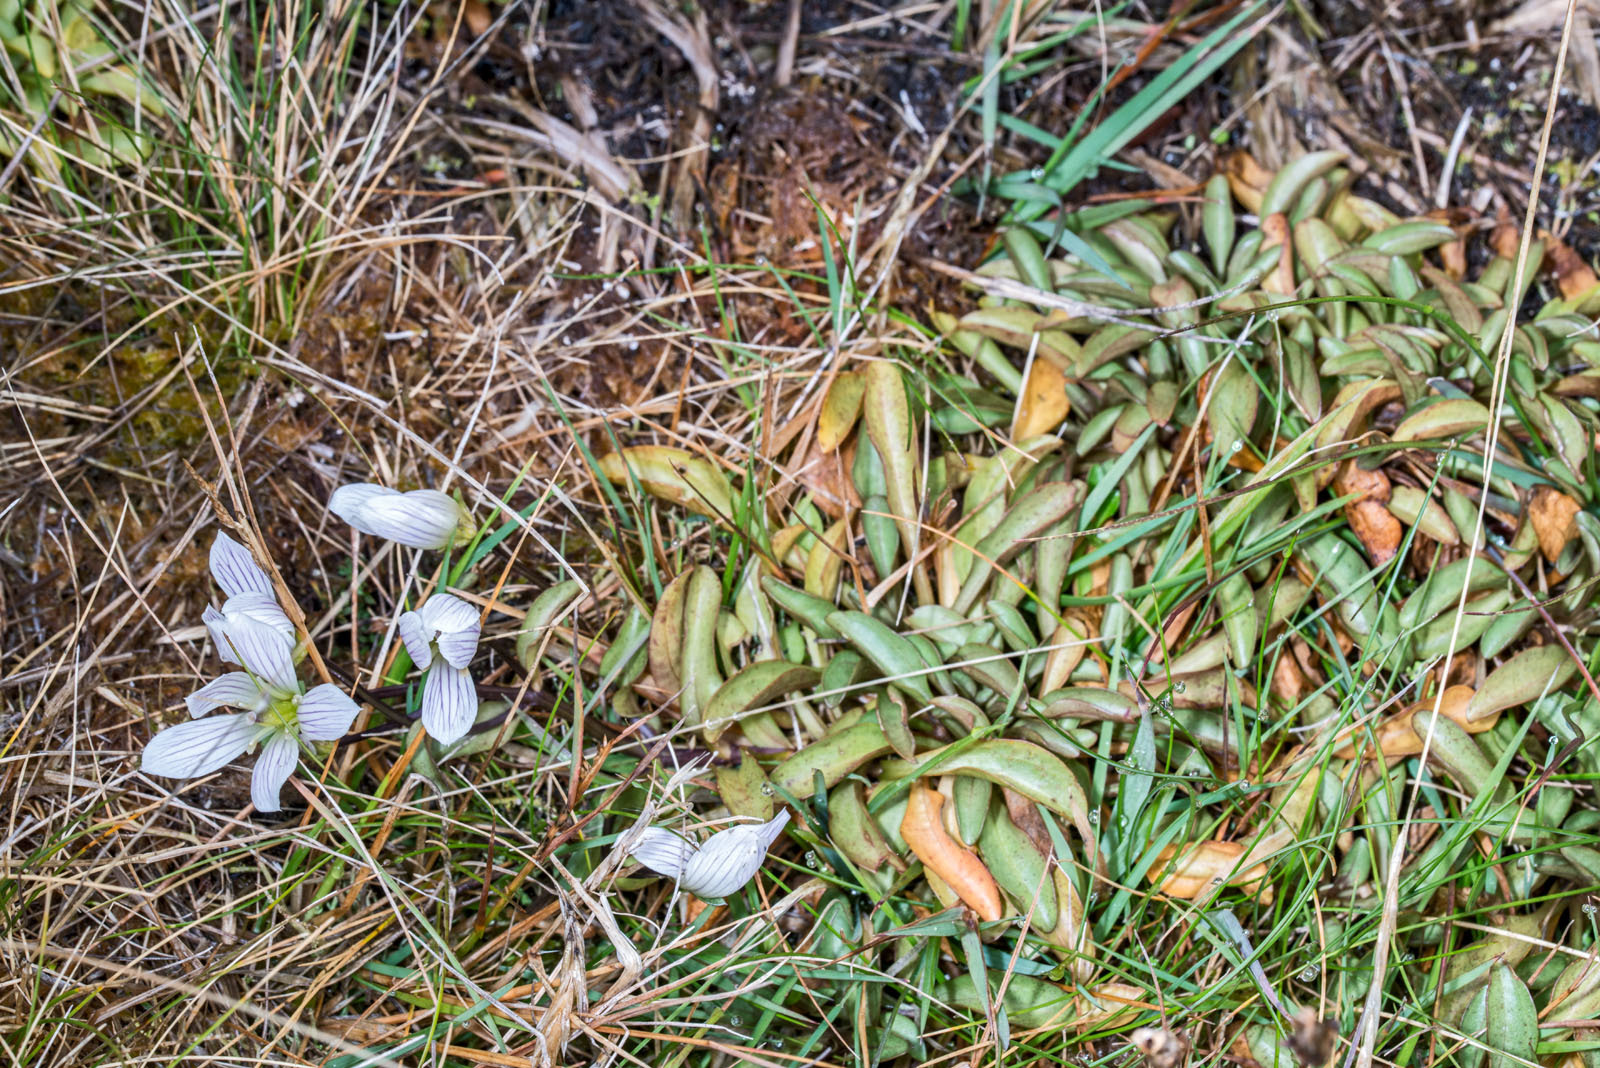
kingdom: Plantae
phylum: Tracheophyta
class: Magnoliopsida
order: Gentianales
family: Gentianaceae
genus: Gentianella
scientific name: Gentianella patula
